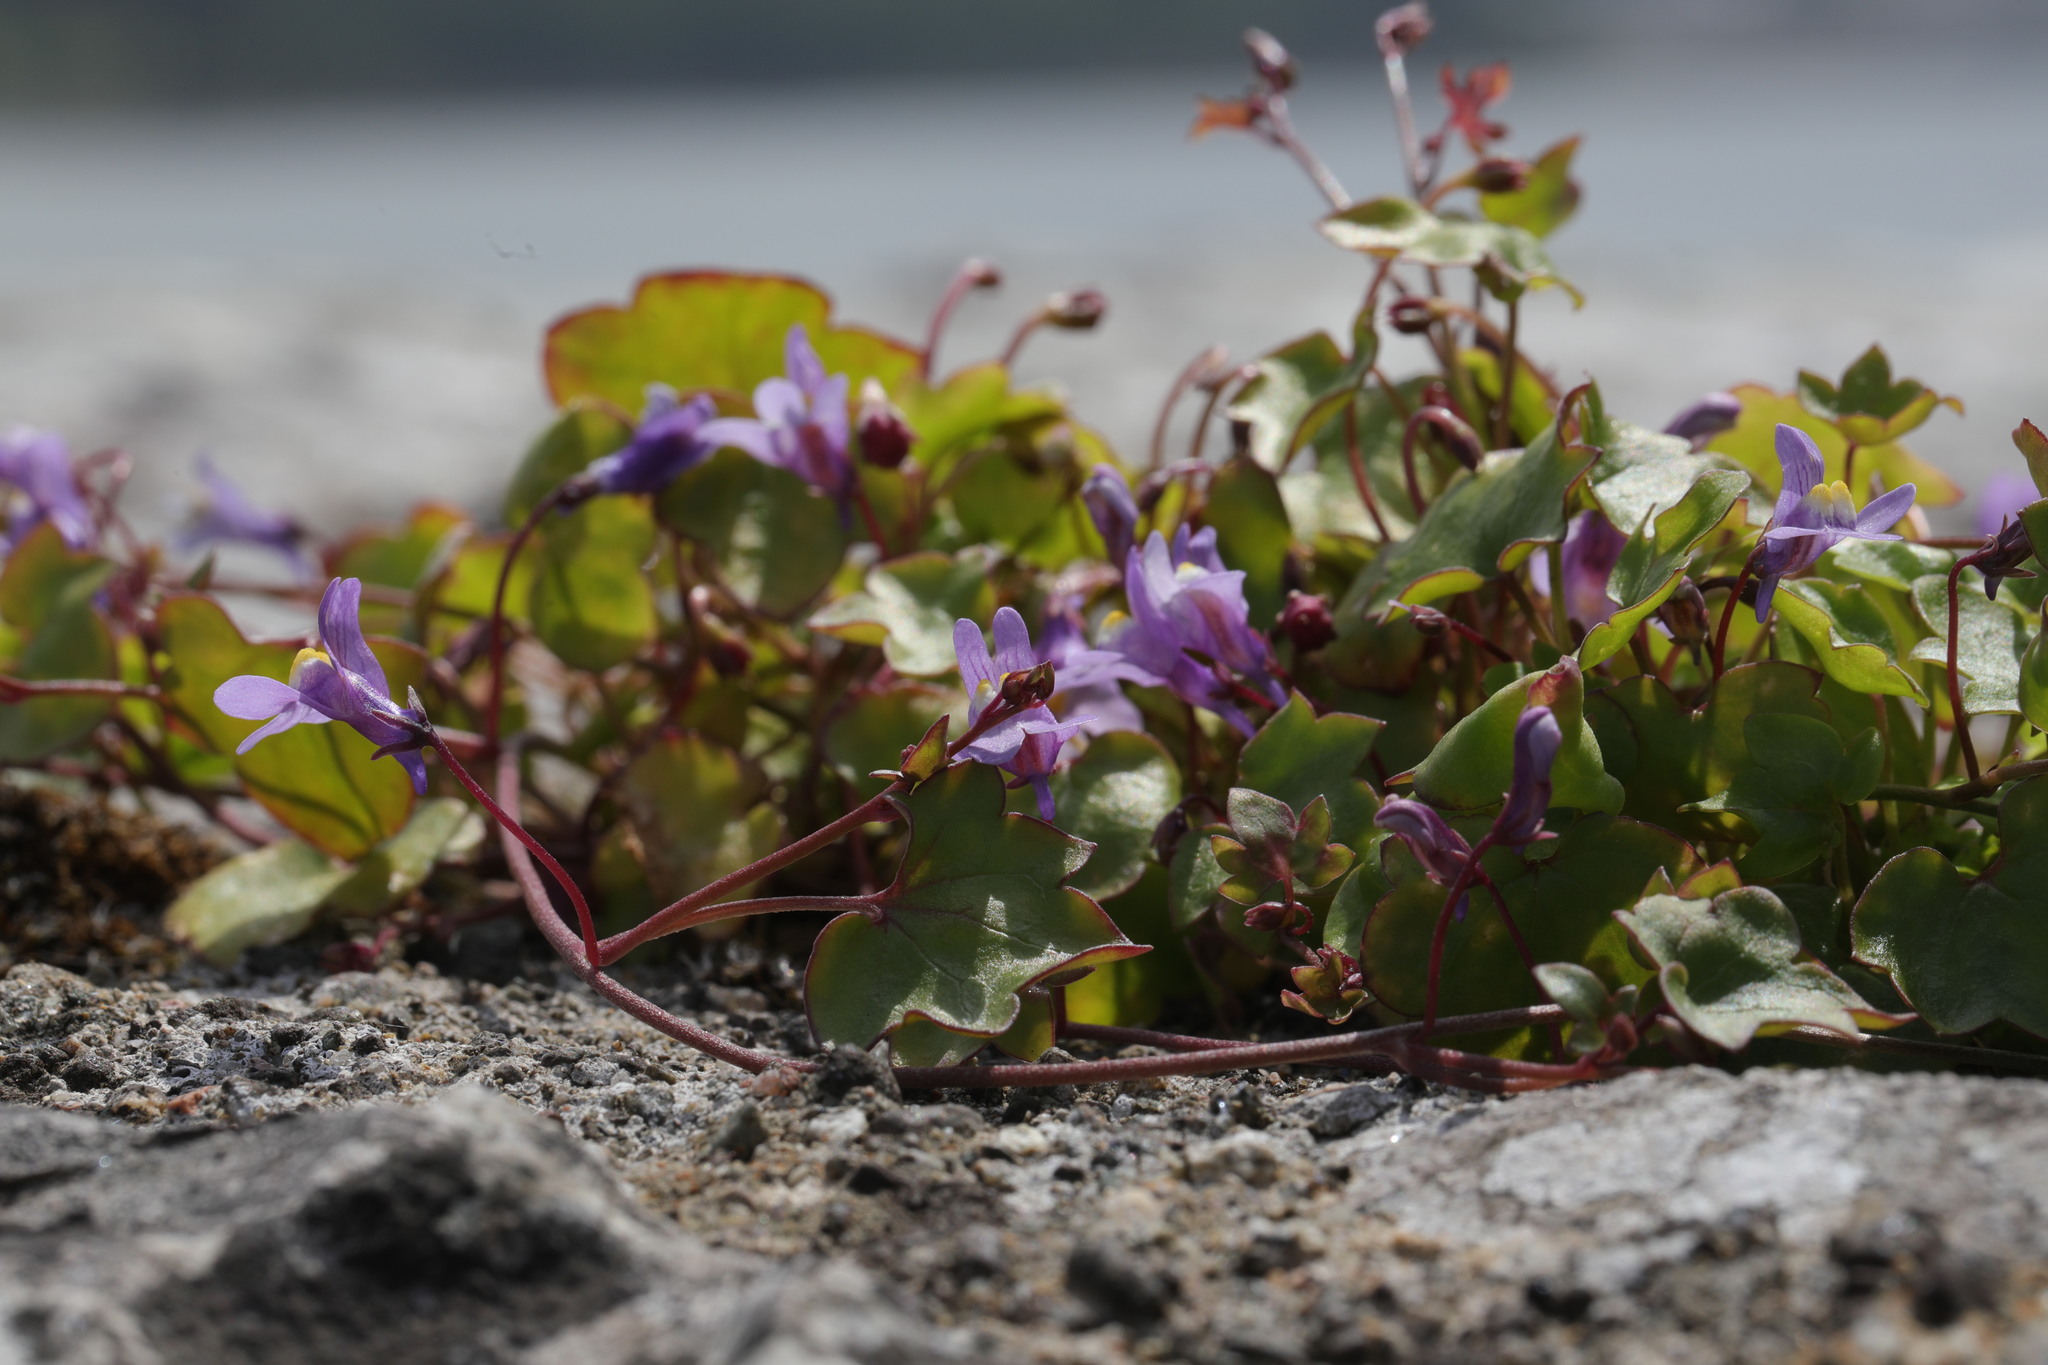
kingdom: Plantae
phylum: Tracheophyta
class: Magnoliopsida
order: Lamiales
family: Plantaginaceae
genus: Cymbalaria
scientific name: Cymbalaria muralis
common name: Ivy-leaved toadflax
